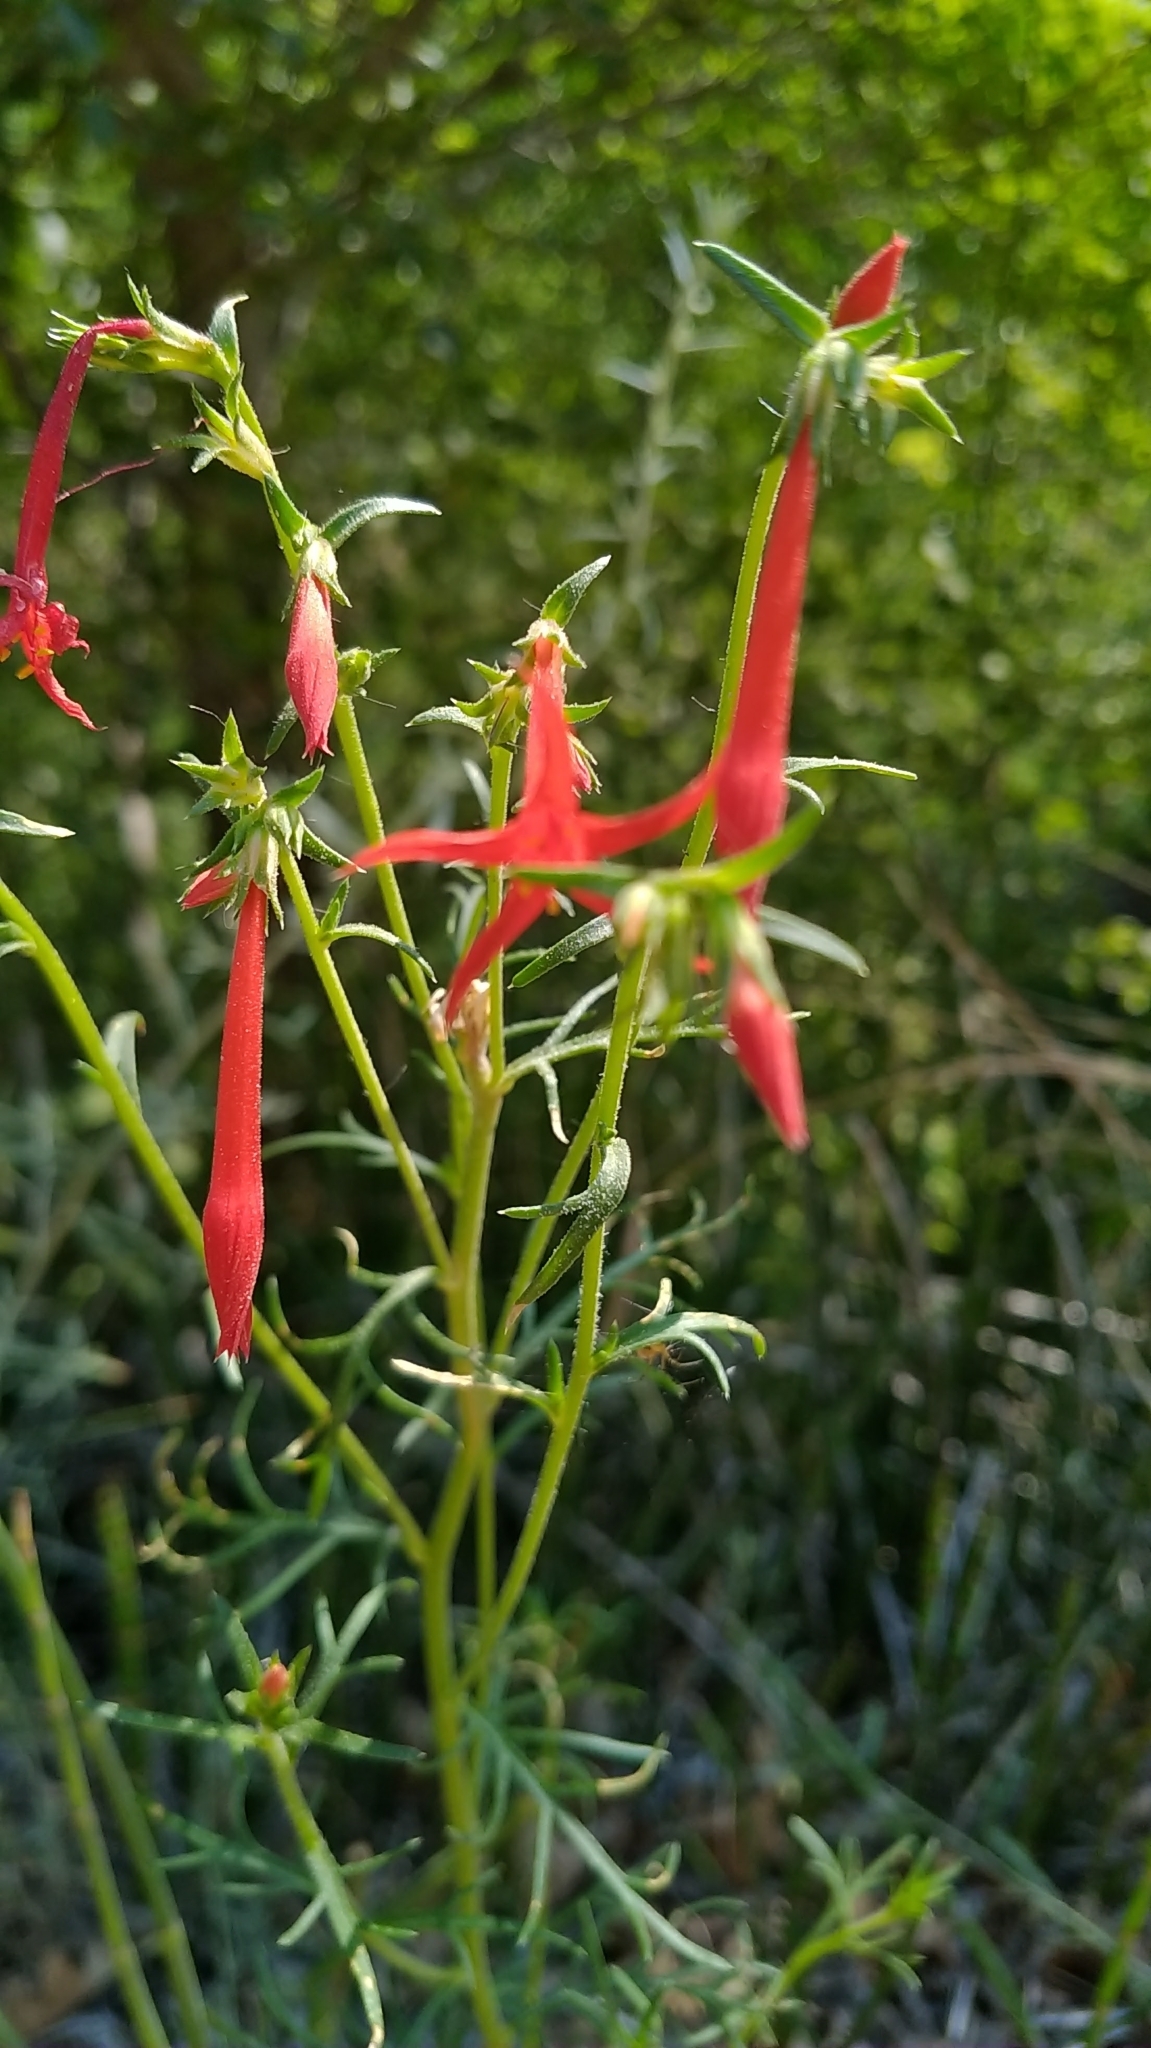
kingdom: Plantae
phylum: Tracheophyta
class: Magnoliopsida
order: Ericales
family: Polemoniaceae
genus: Ipomopsis
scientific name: Ipomopsis aggregata
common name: Scarlet gilia
